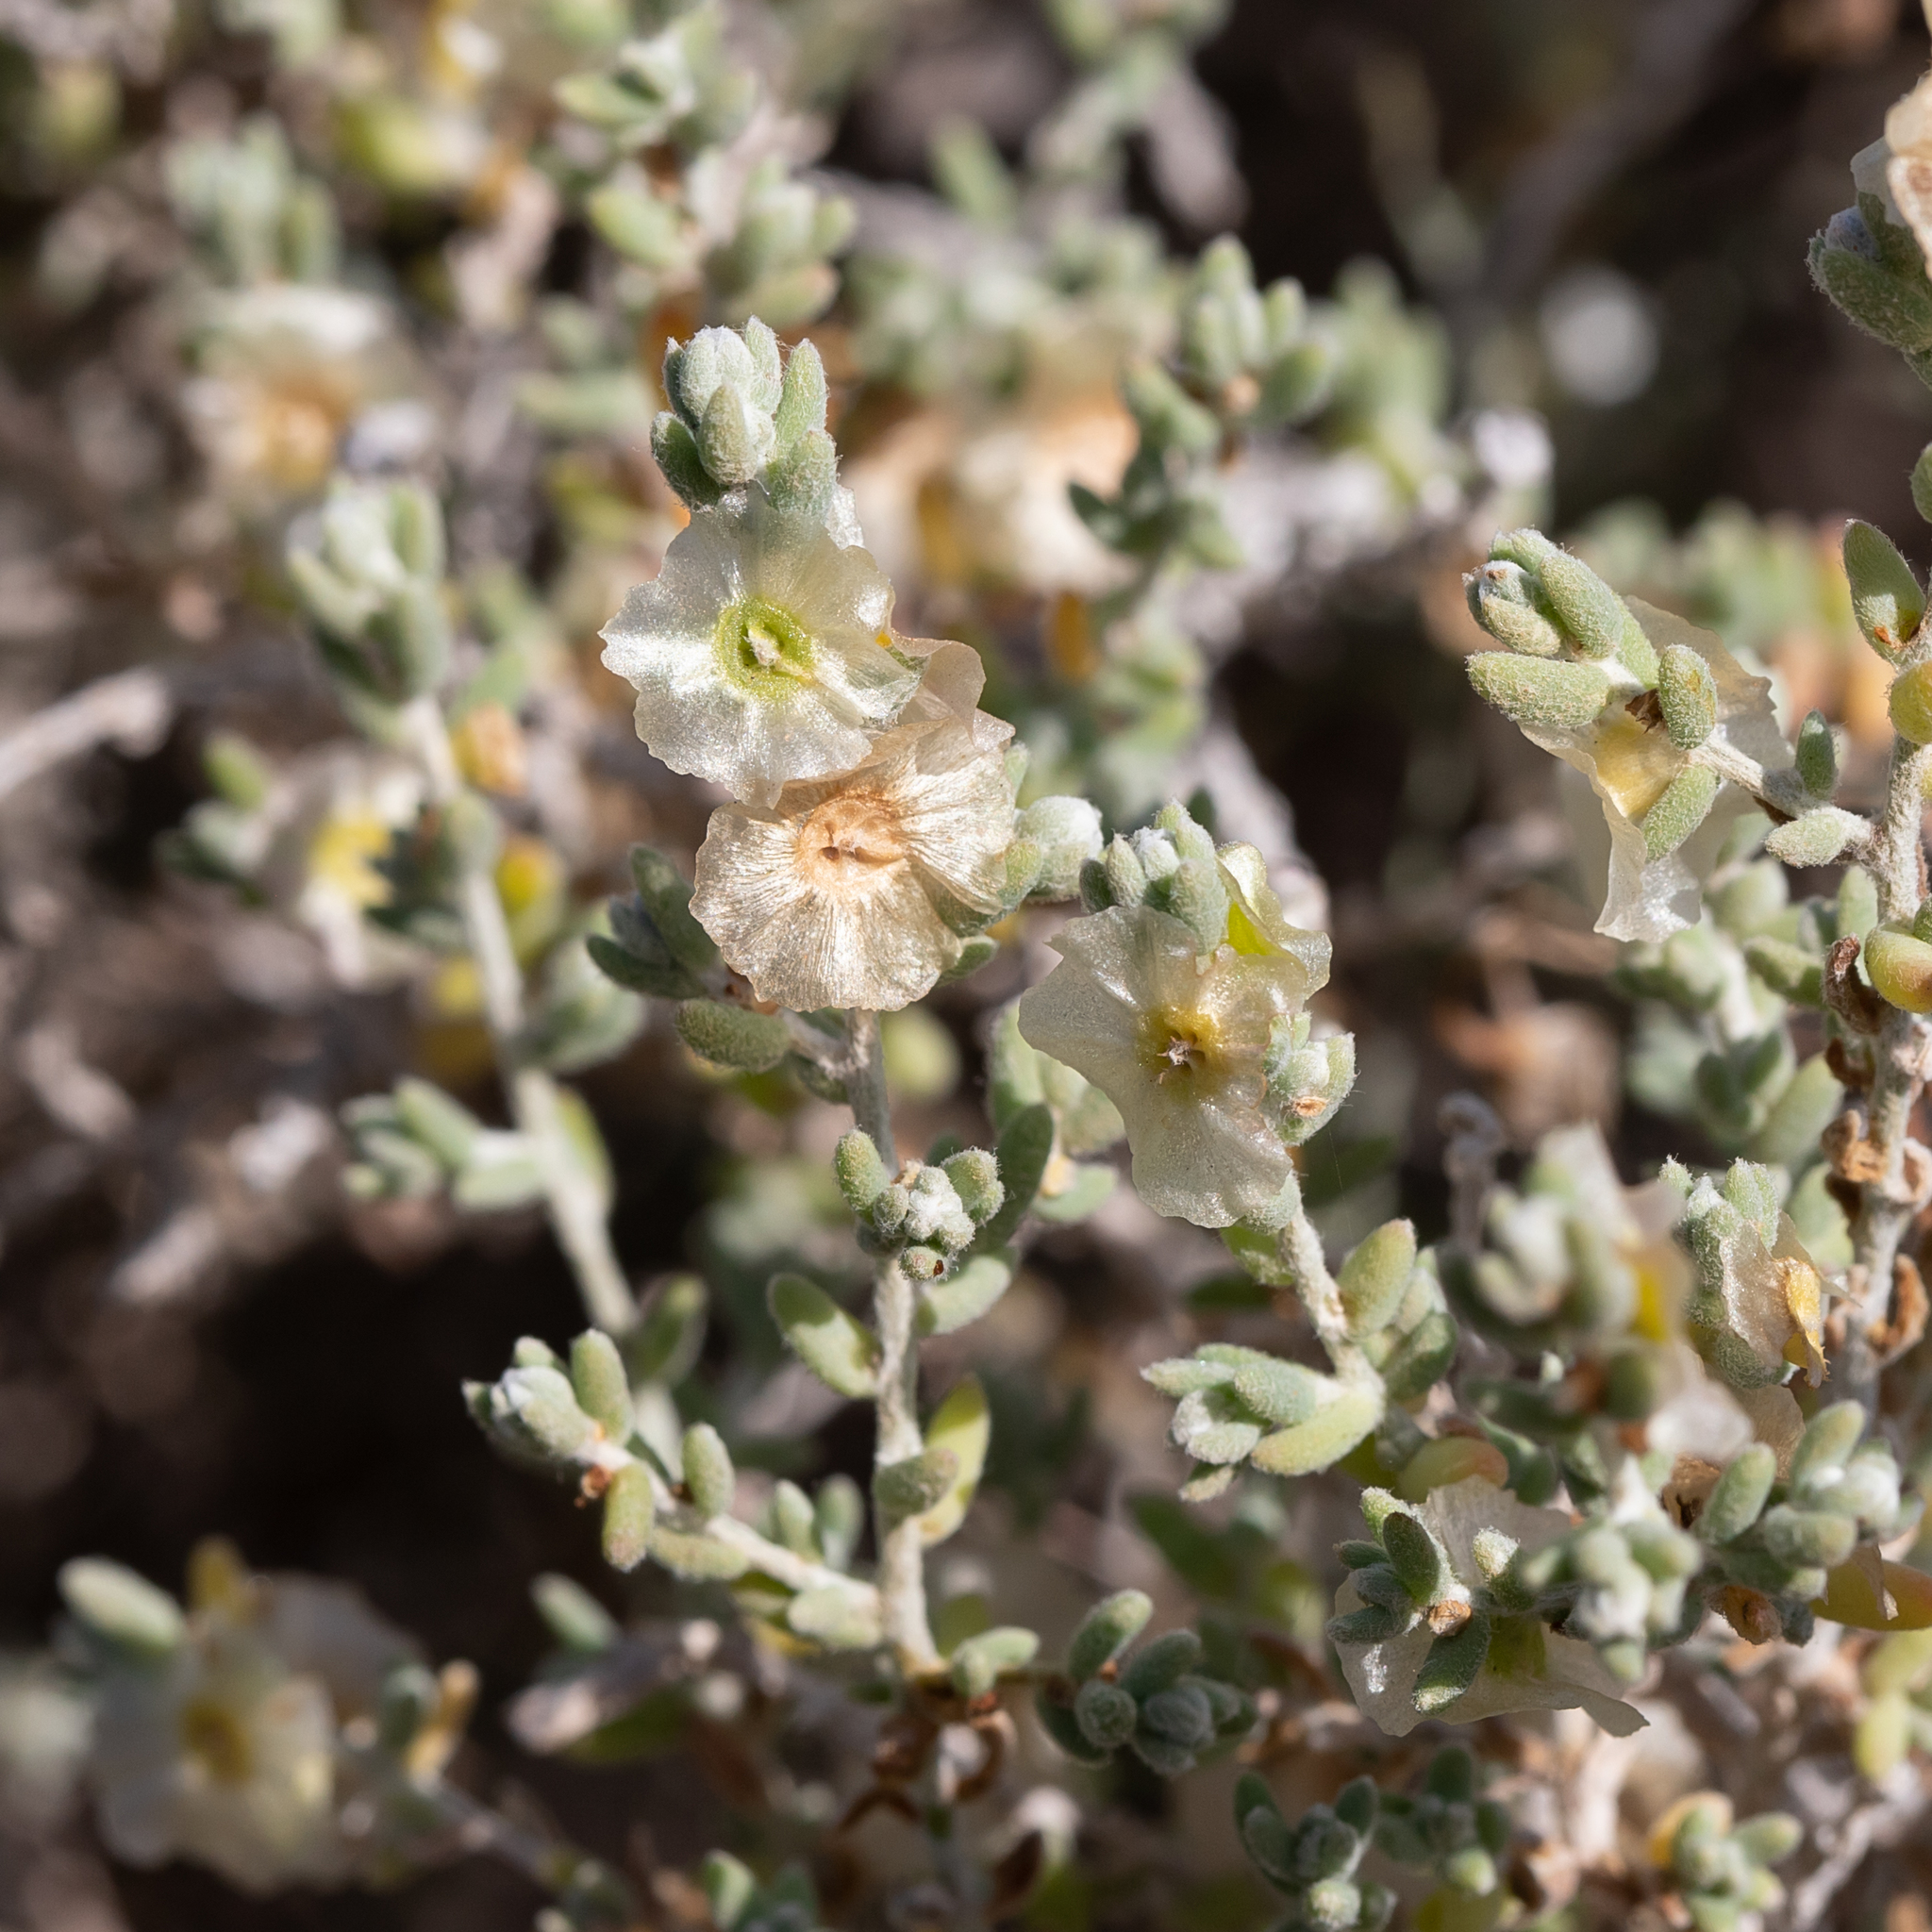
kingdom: Plantae
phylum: Tracheophyta
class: Magnoliopsida
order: Caryophyllales
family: Amaranthaceae
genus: Maireana
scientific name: Maireana appressa
